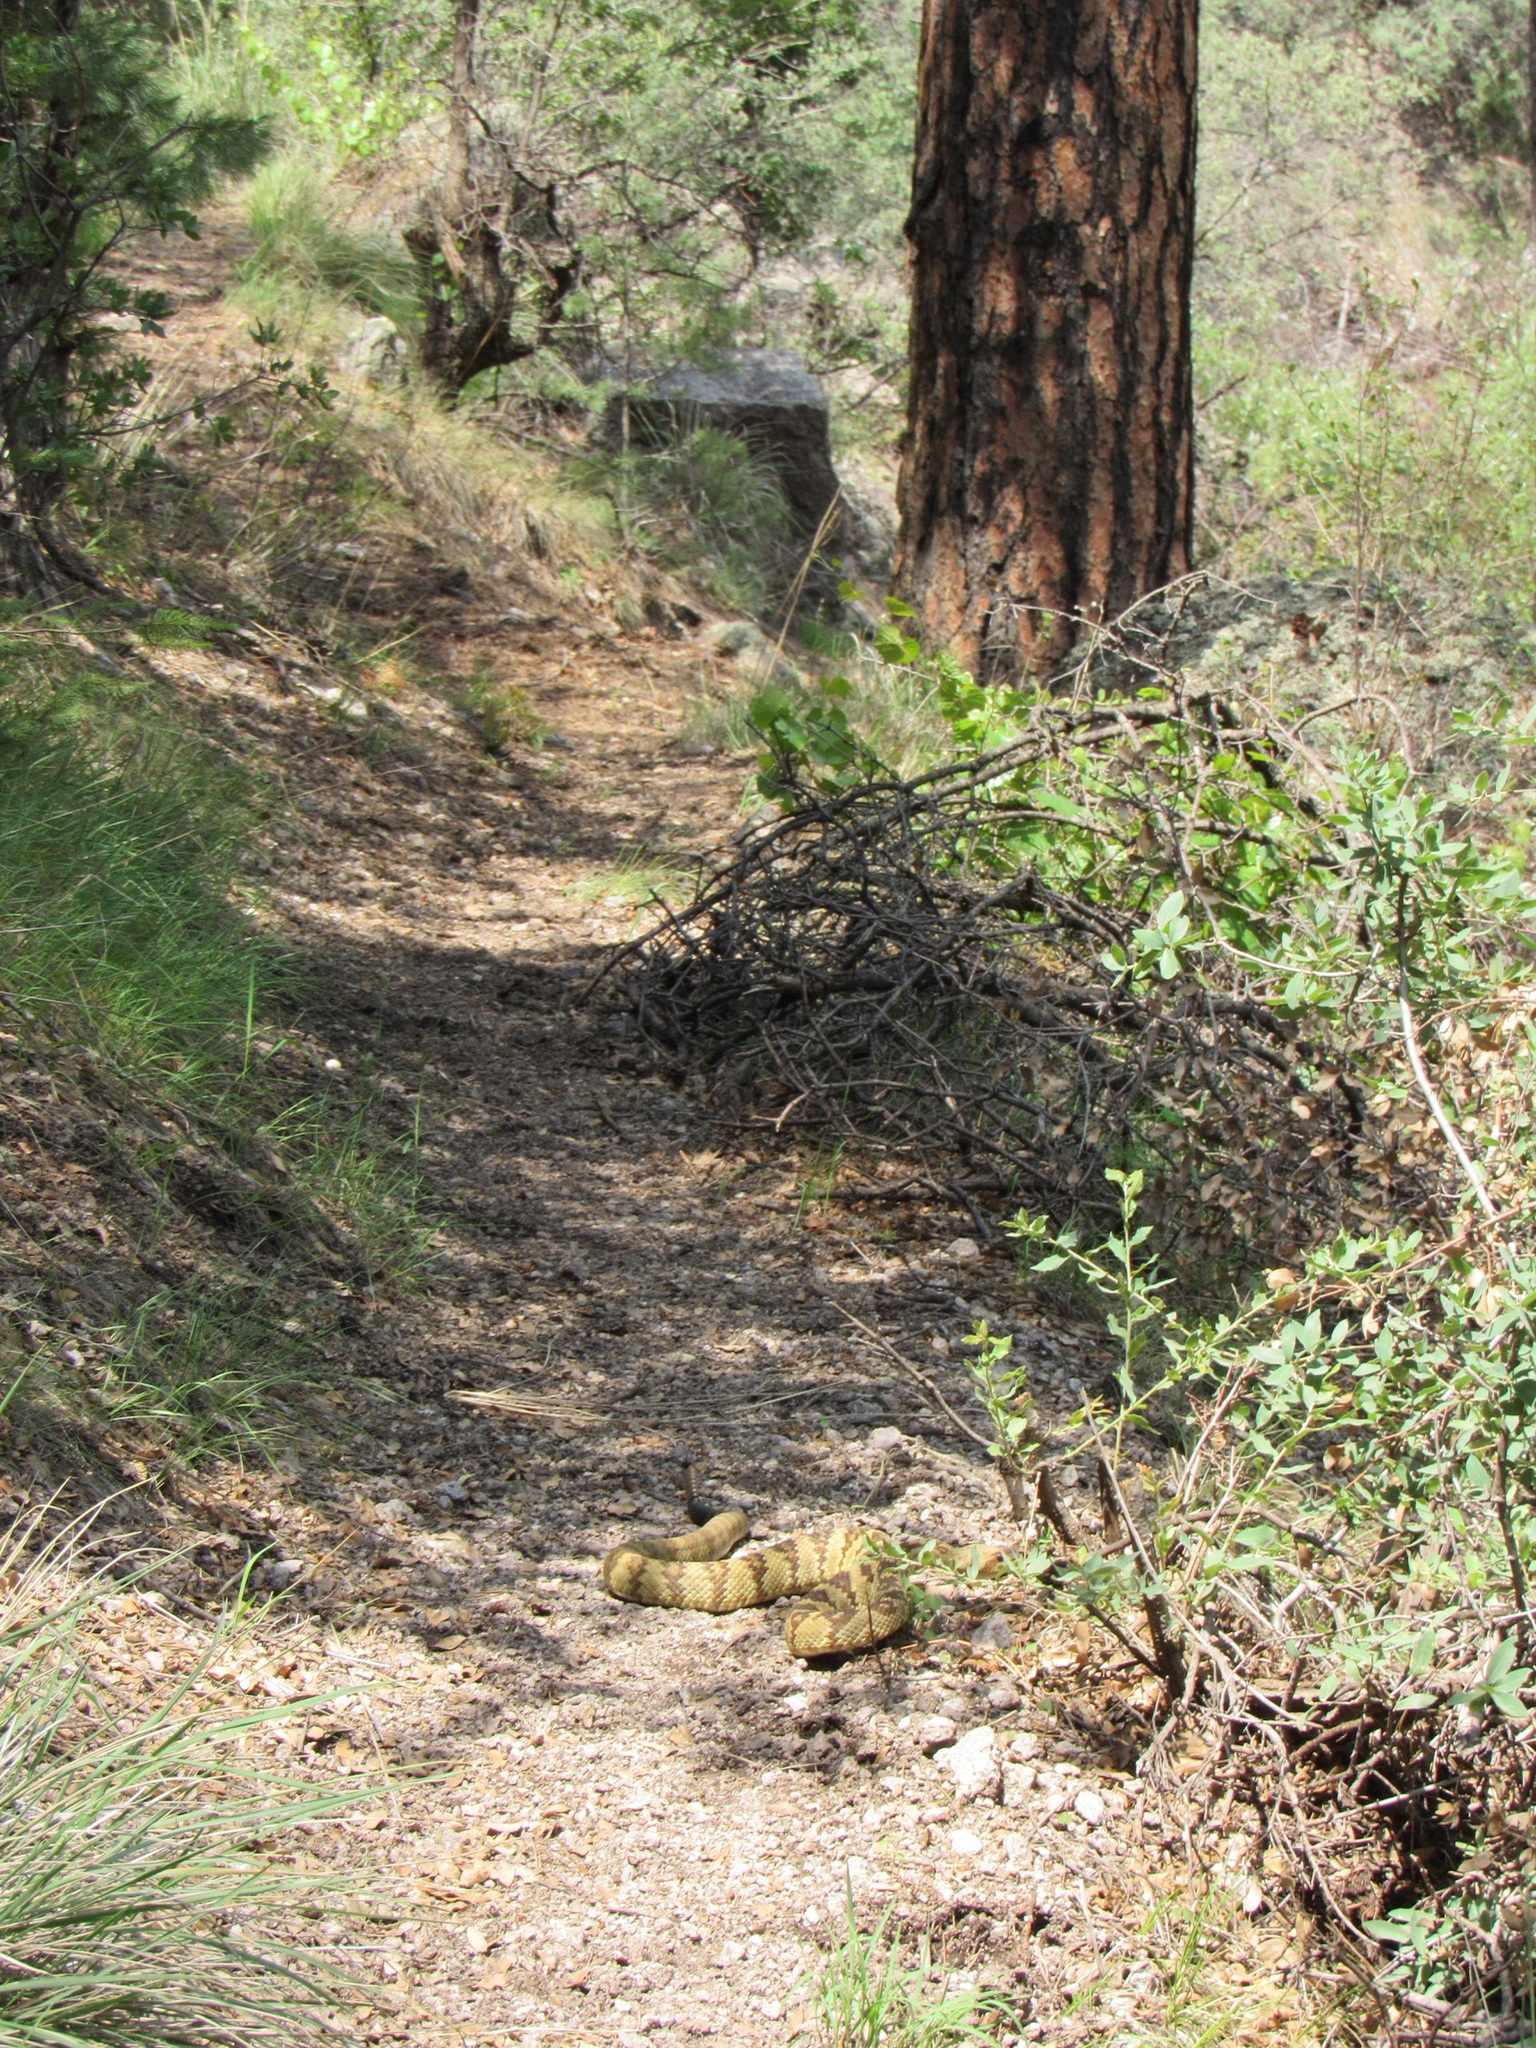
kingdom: Animalia
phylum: Chordata
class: Squamata
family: Viperidae
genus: Crotalus
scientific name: Crotalus molossus
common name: Black tailed rattlesnake
